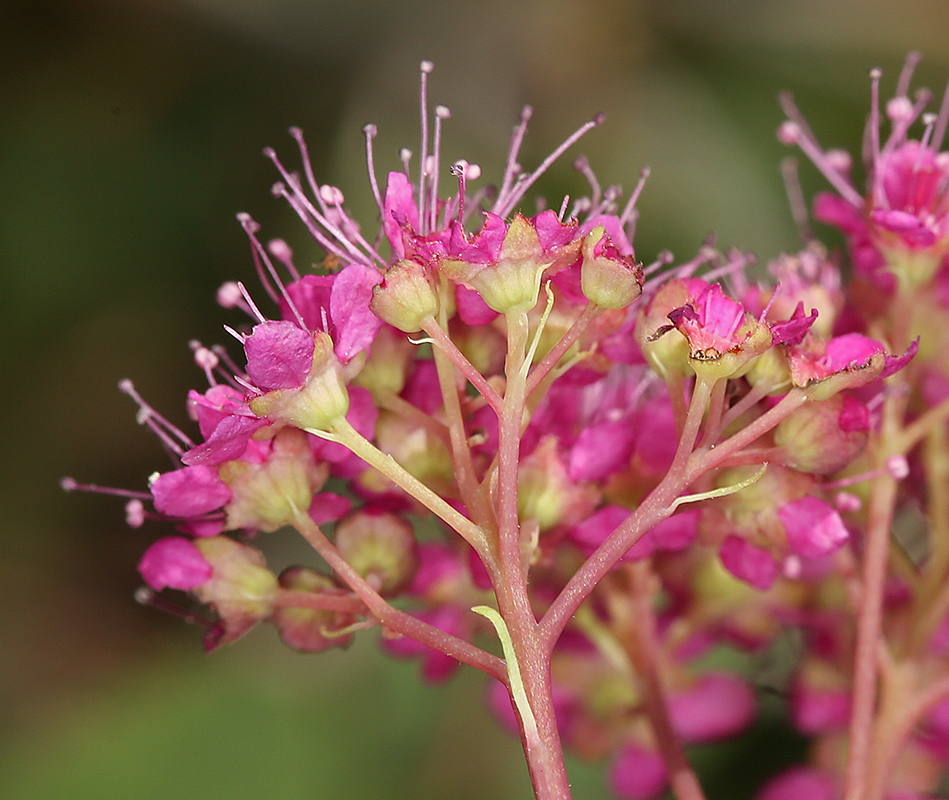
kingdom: Plantae
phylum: Tracheophyta
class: Magnoliopsida
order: Rosales
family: Rosaceae
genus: Spiraea
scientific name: Spiraea splendens
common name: Subalpine meadowsweet
